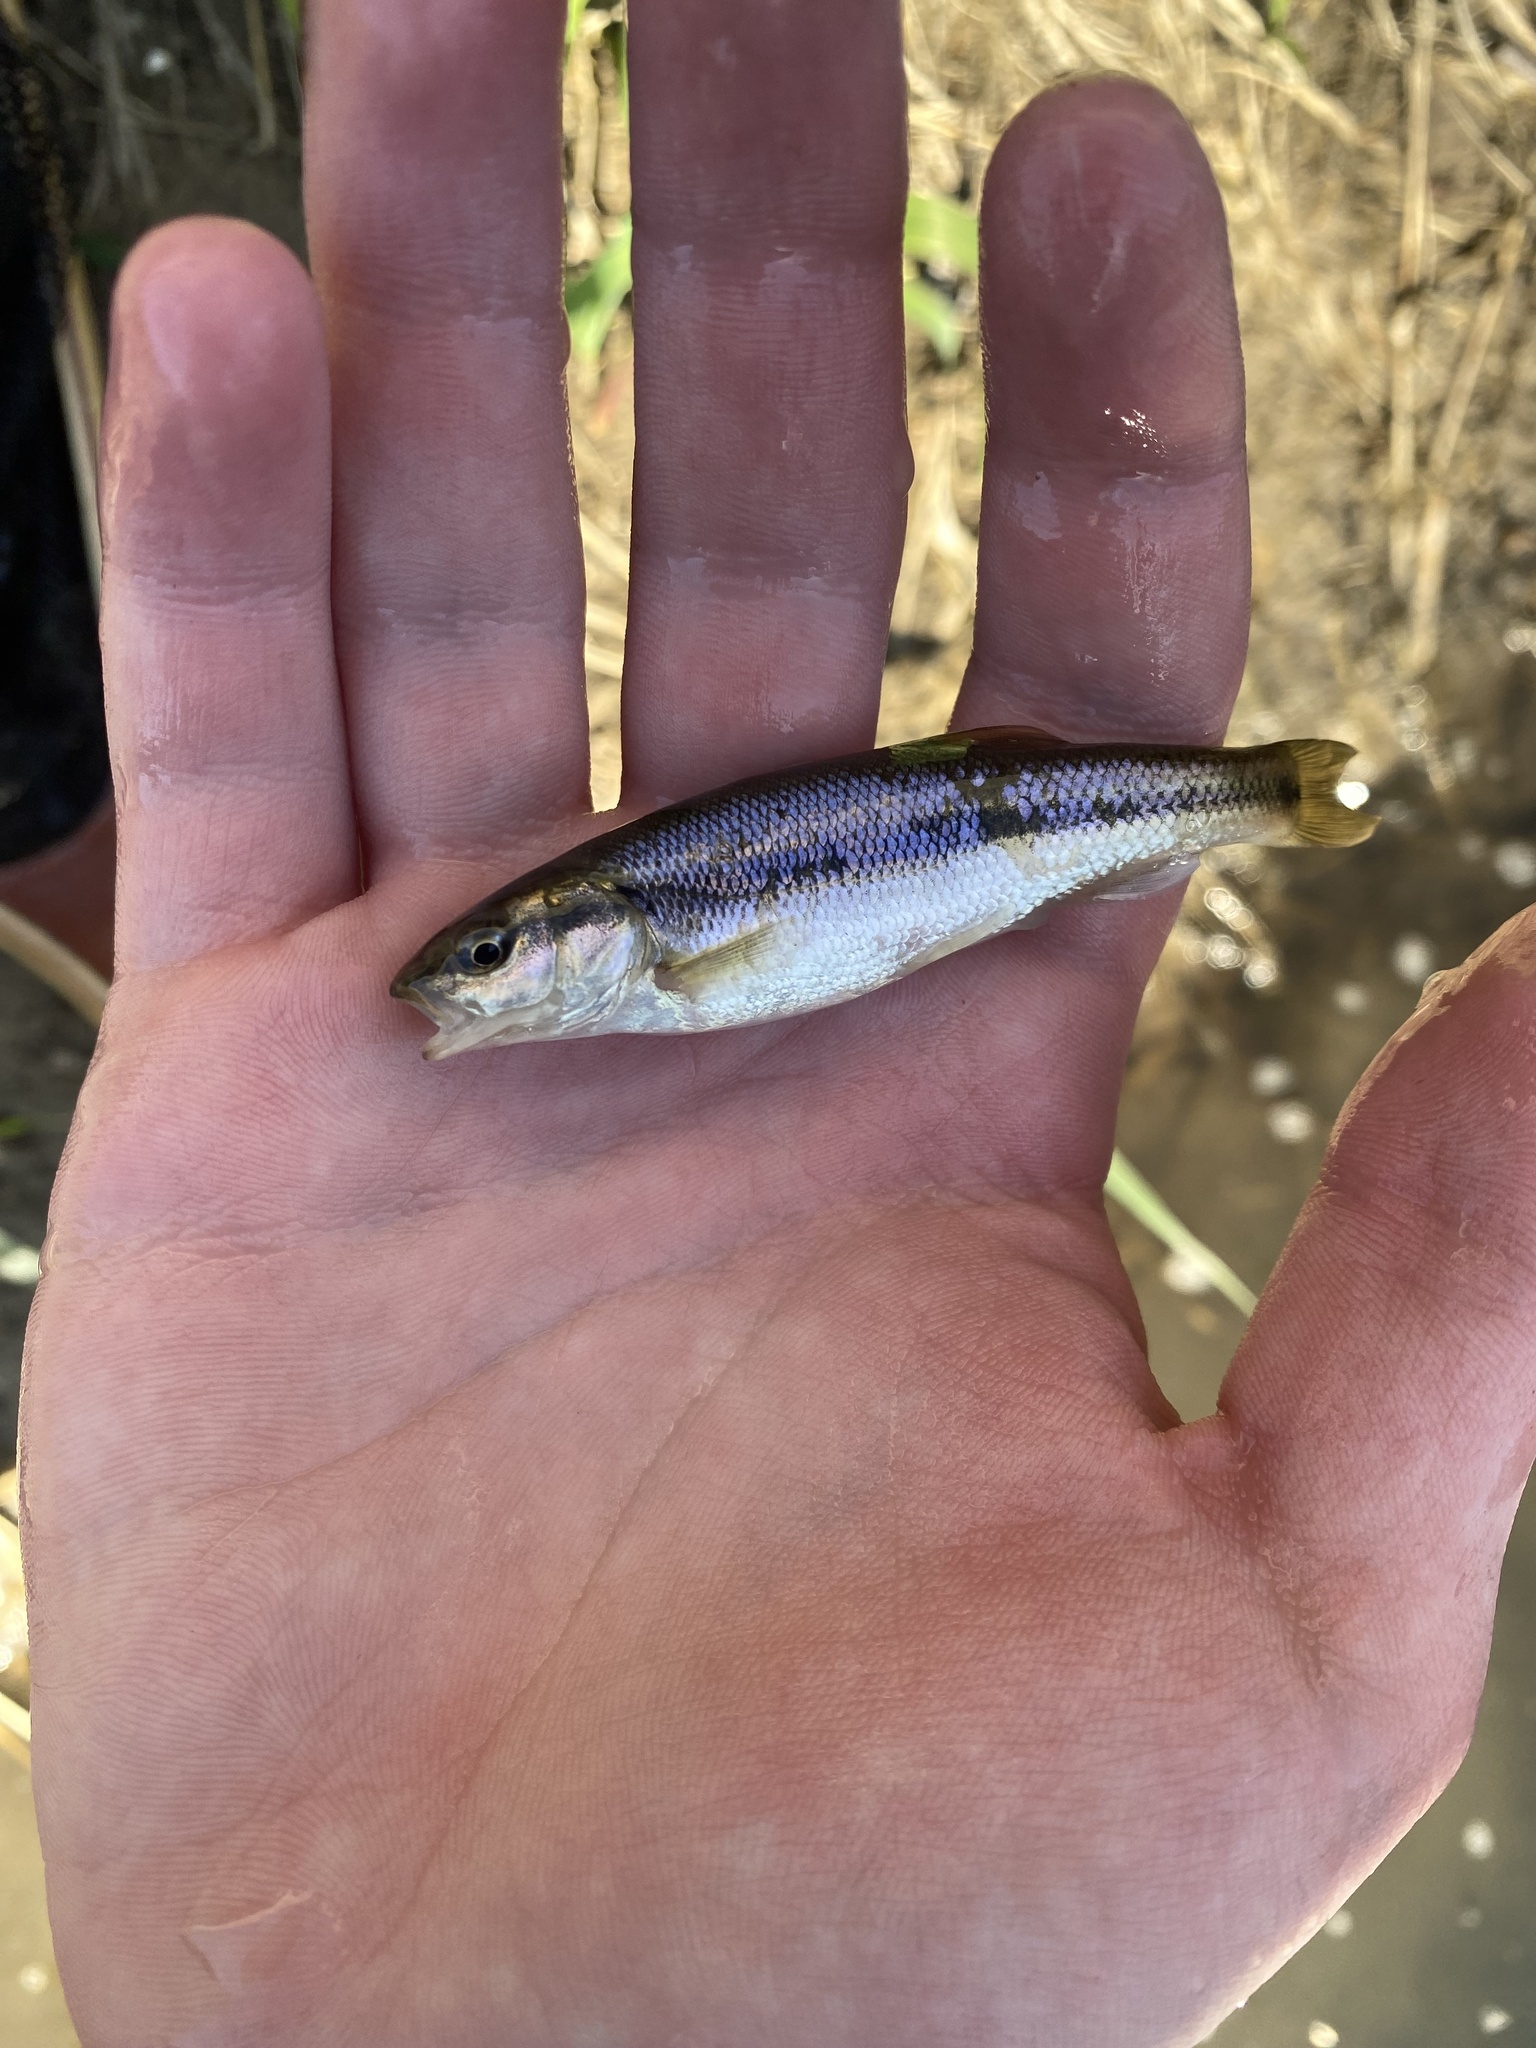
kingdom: Animalia
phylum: Chordata
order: Cypriniformes
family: Cyprinidae
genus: Semotilus
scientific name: Semotilus atromaculatus
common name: Creek chub
